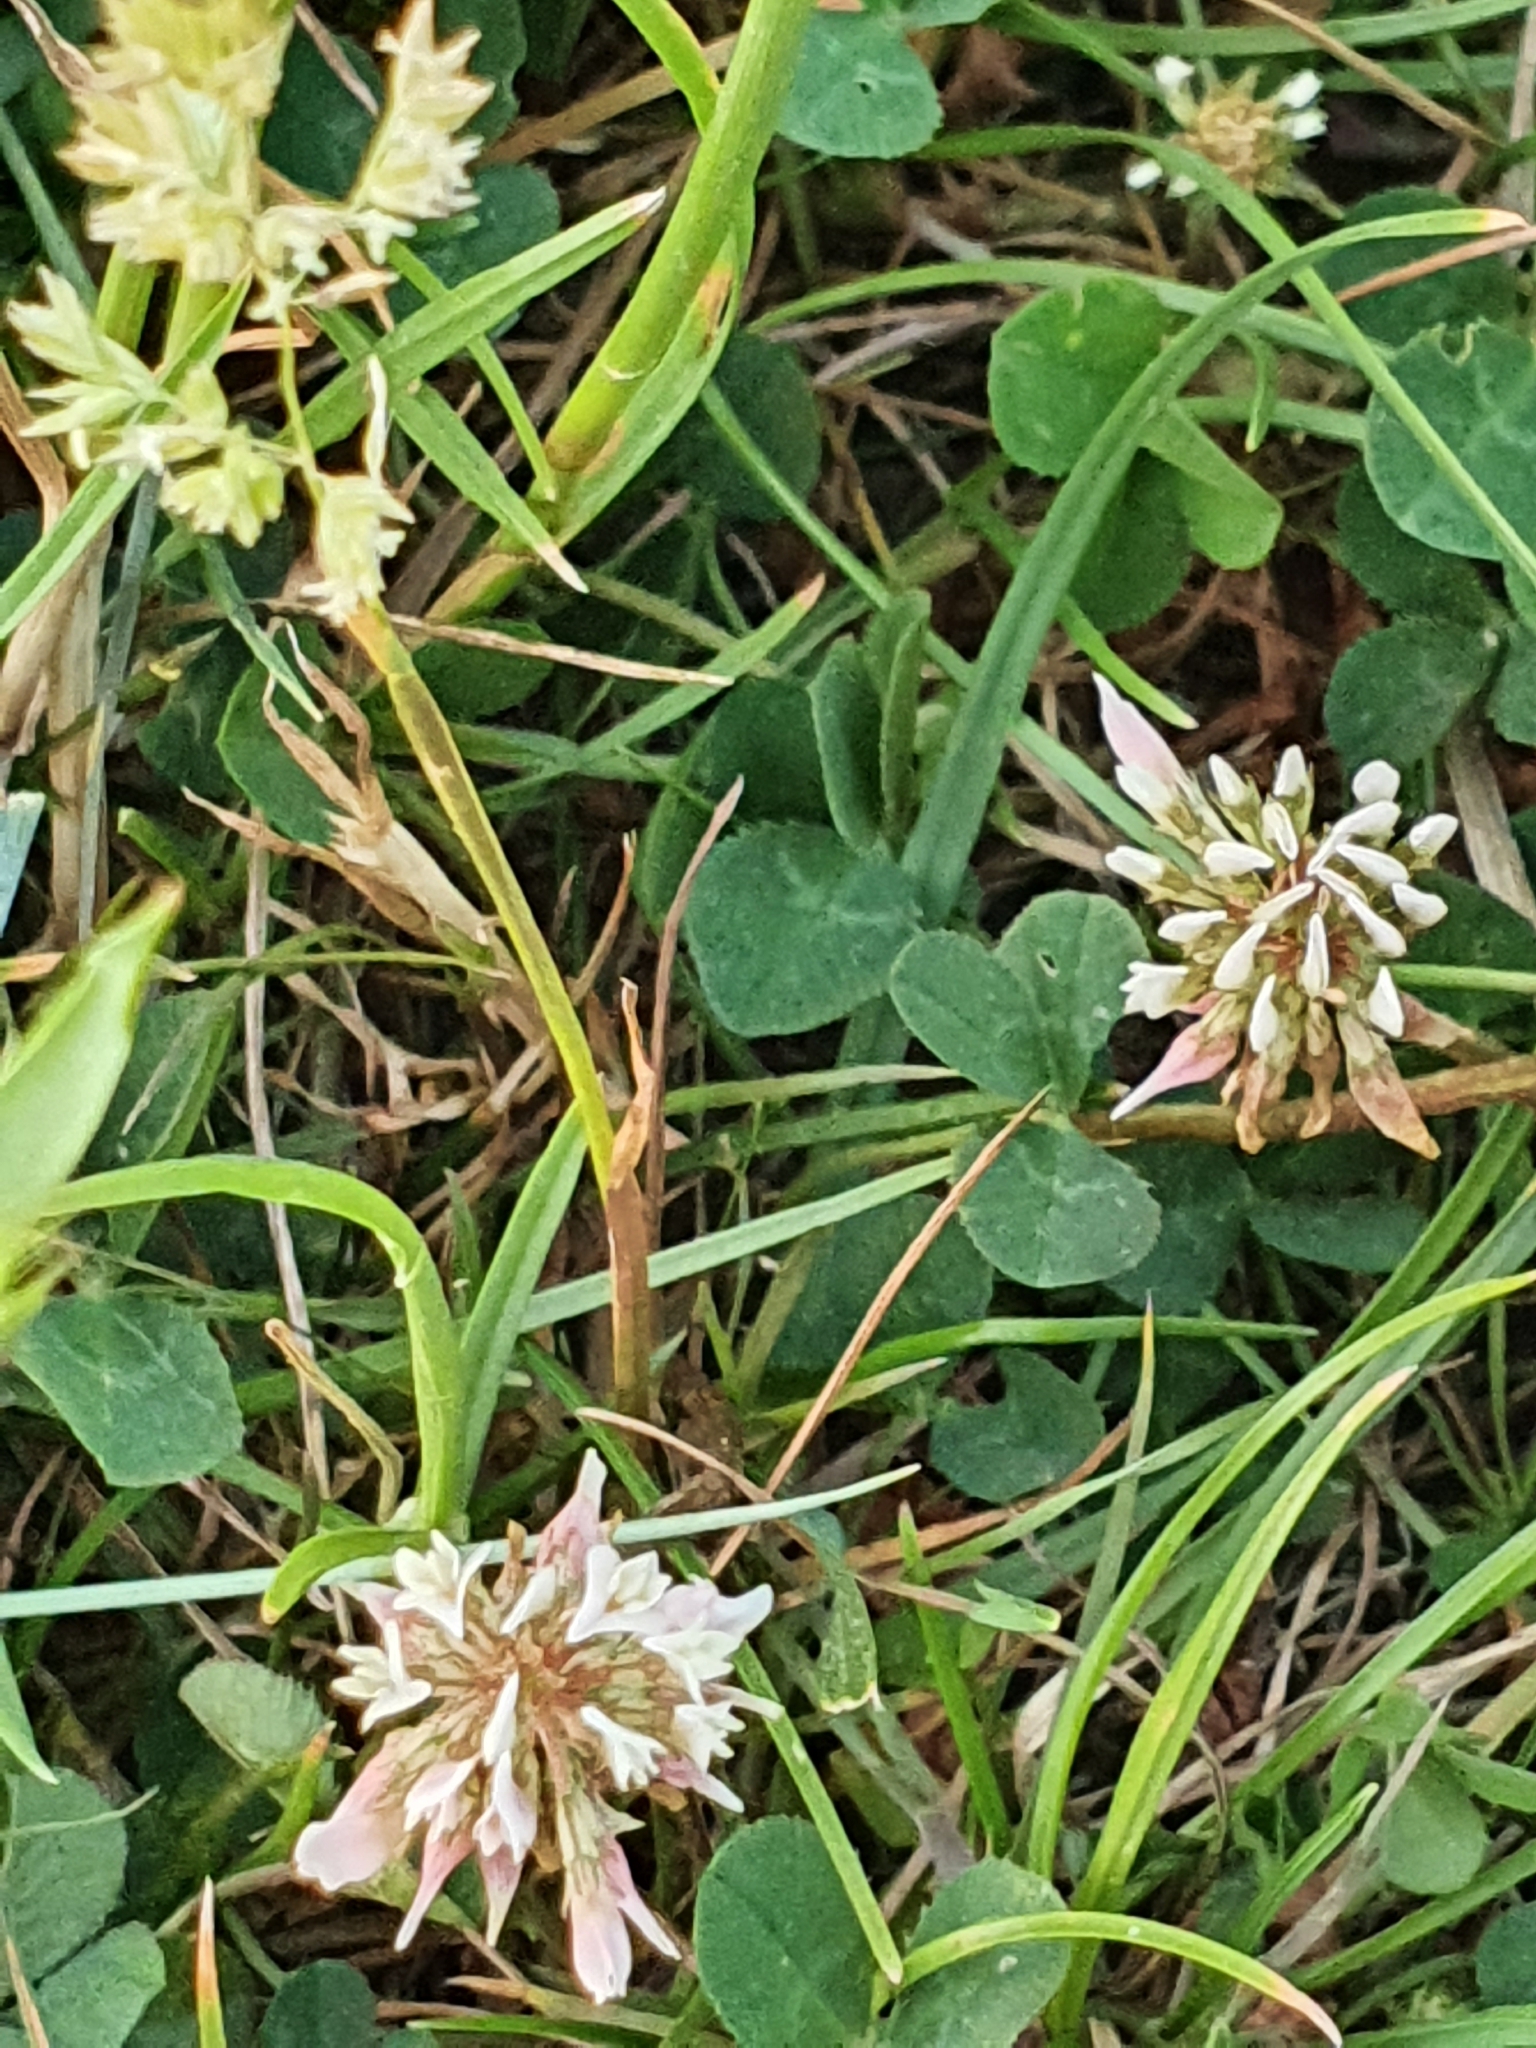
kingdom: Plantae
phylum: Tracheophyta
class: Magnoliopsida
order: Fabales
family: Fabaceae
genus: Trifolium
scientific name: Trifolium repens
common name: White clover
